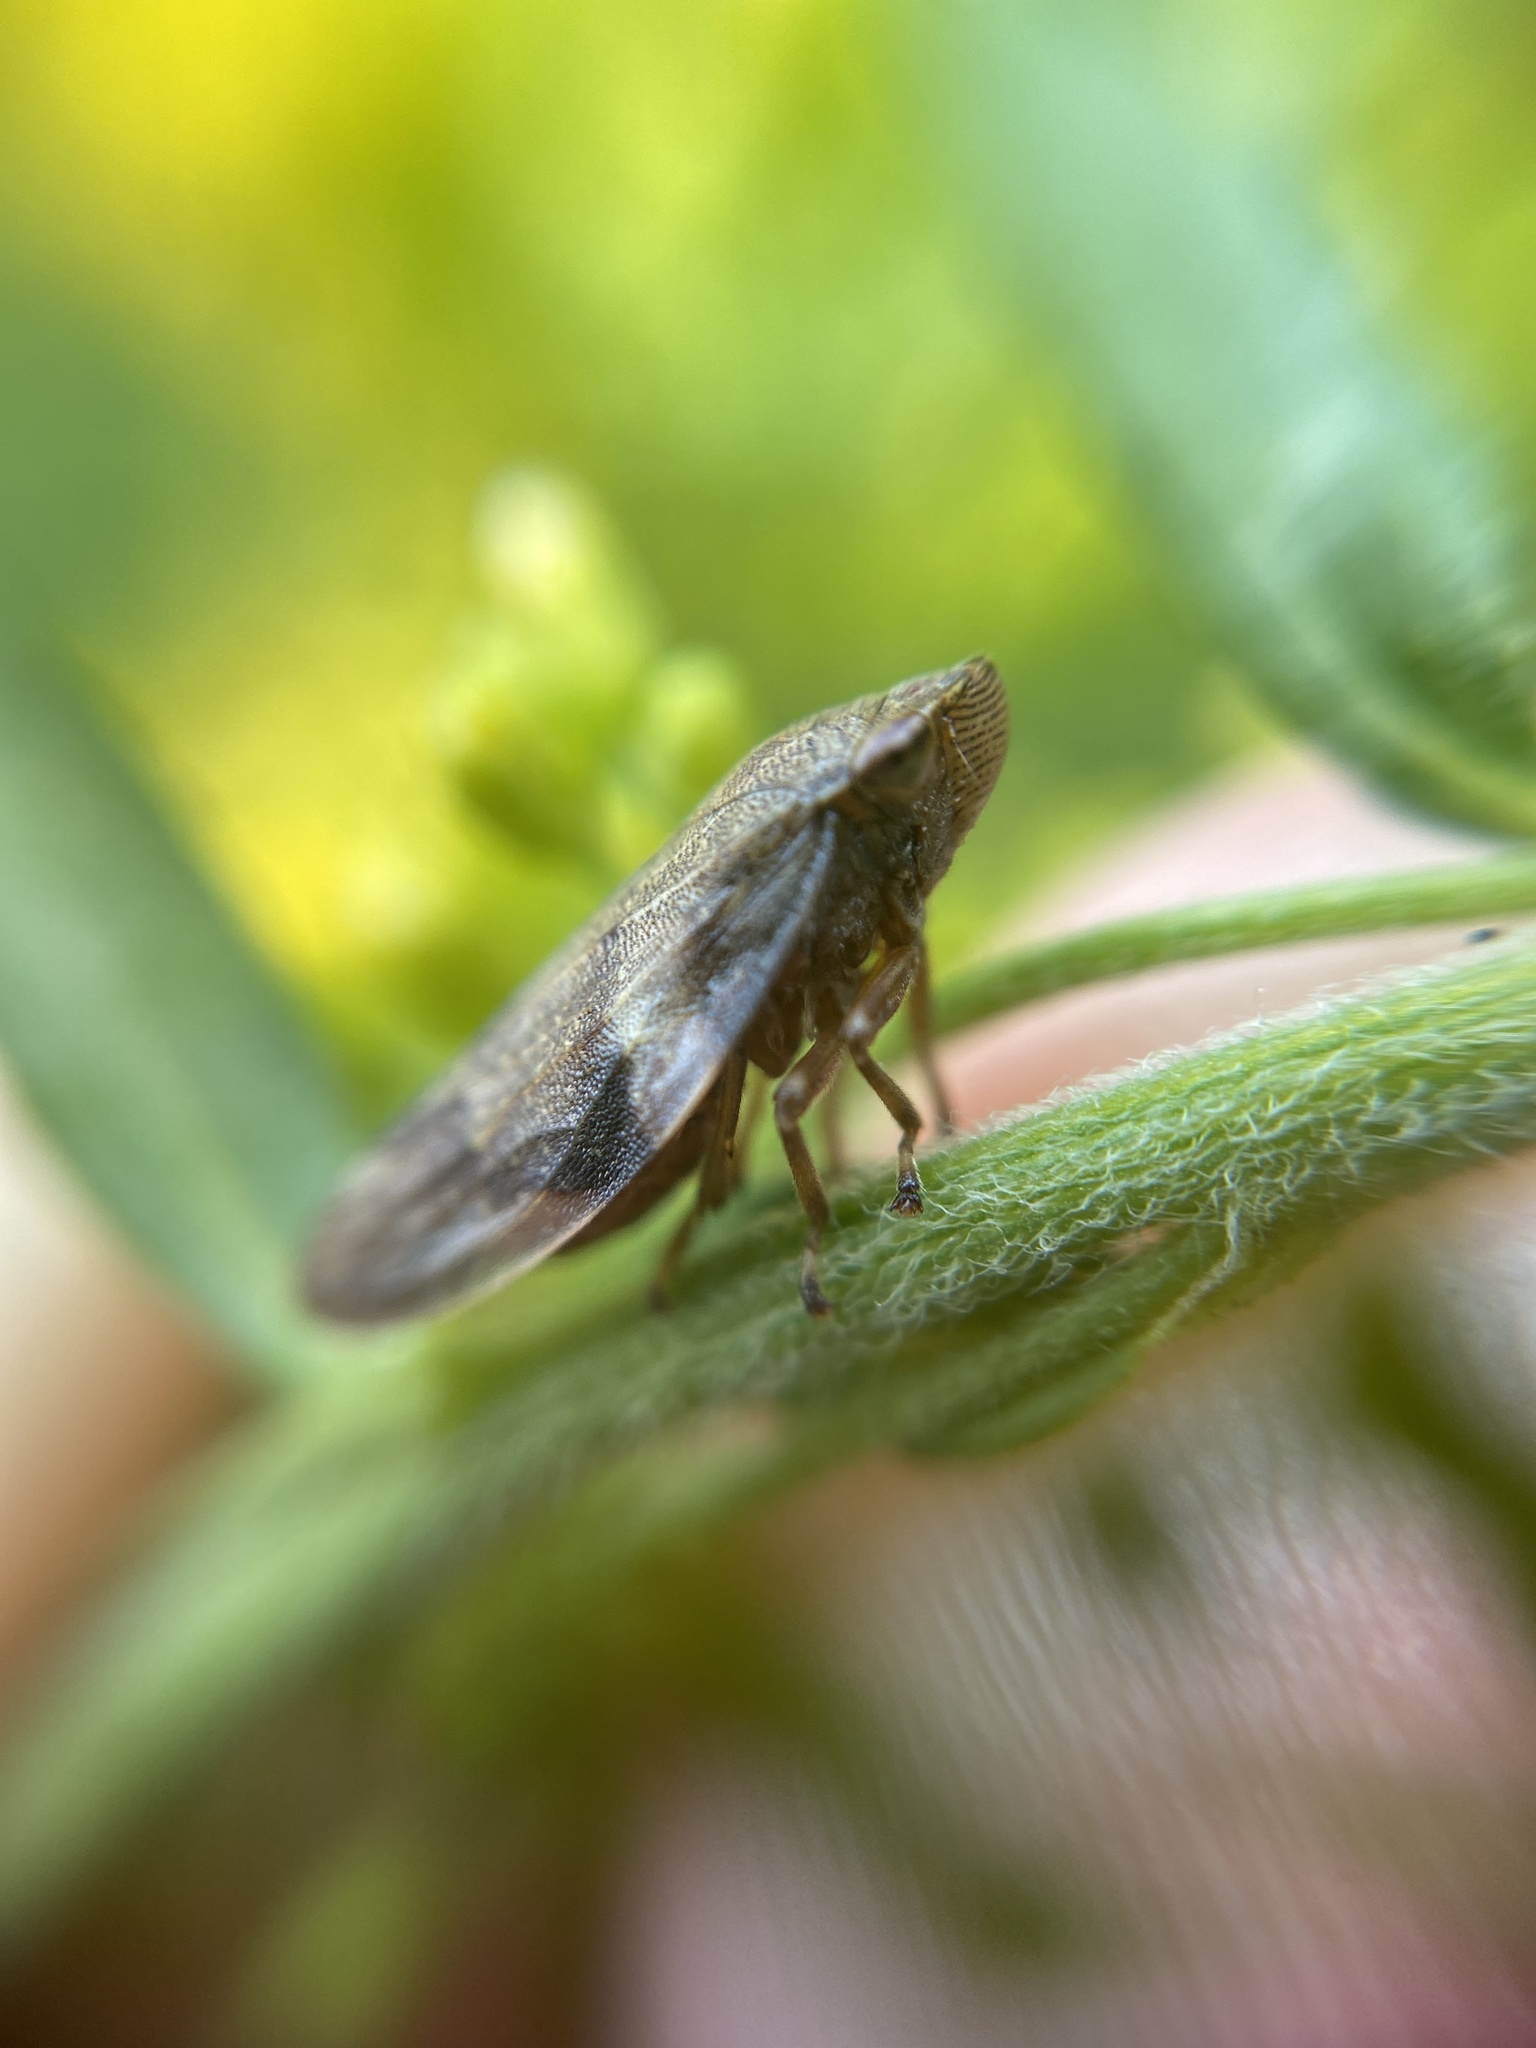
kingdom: Animalia
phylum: Arthropoda
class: Insecta
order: Hemiptera
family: Aphrophoridae
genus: Aphrophora
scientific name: Aphrophora alni
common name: European alder spittlebug
